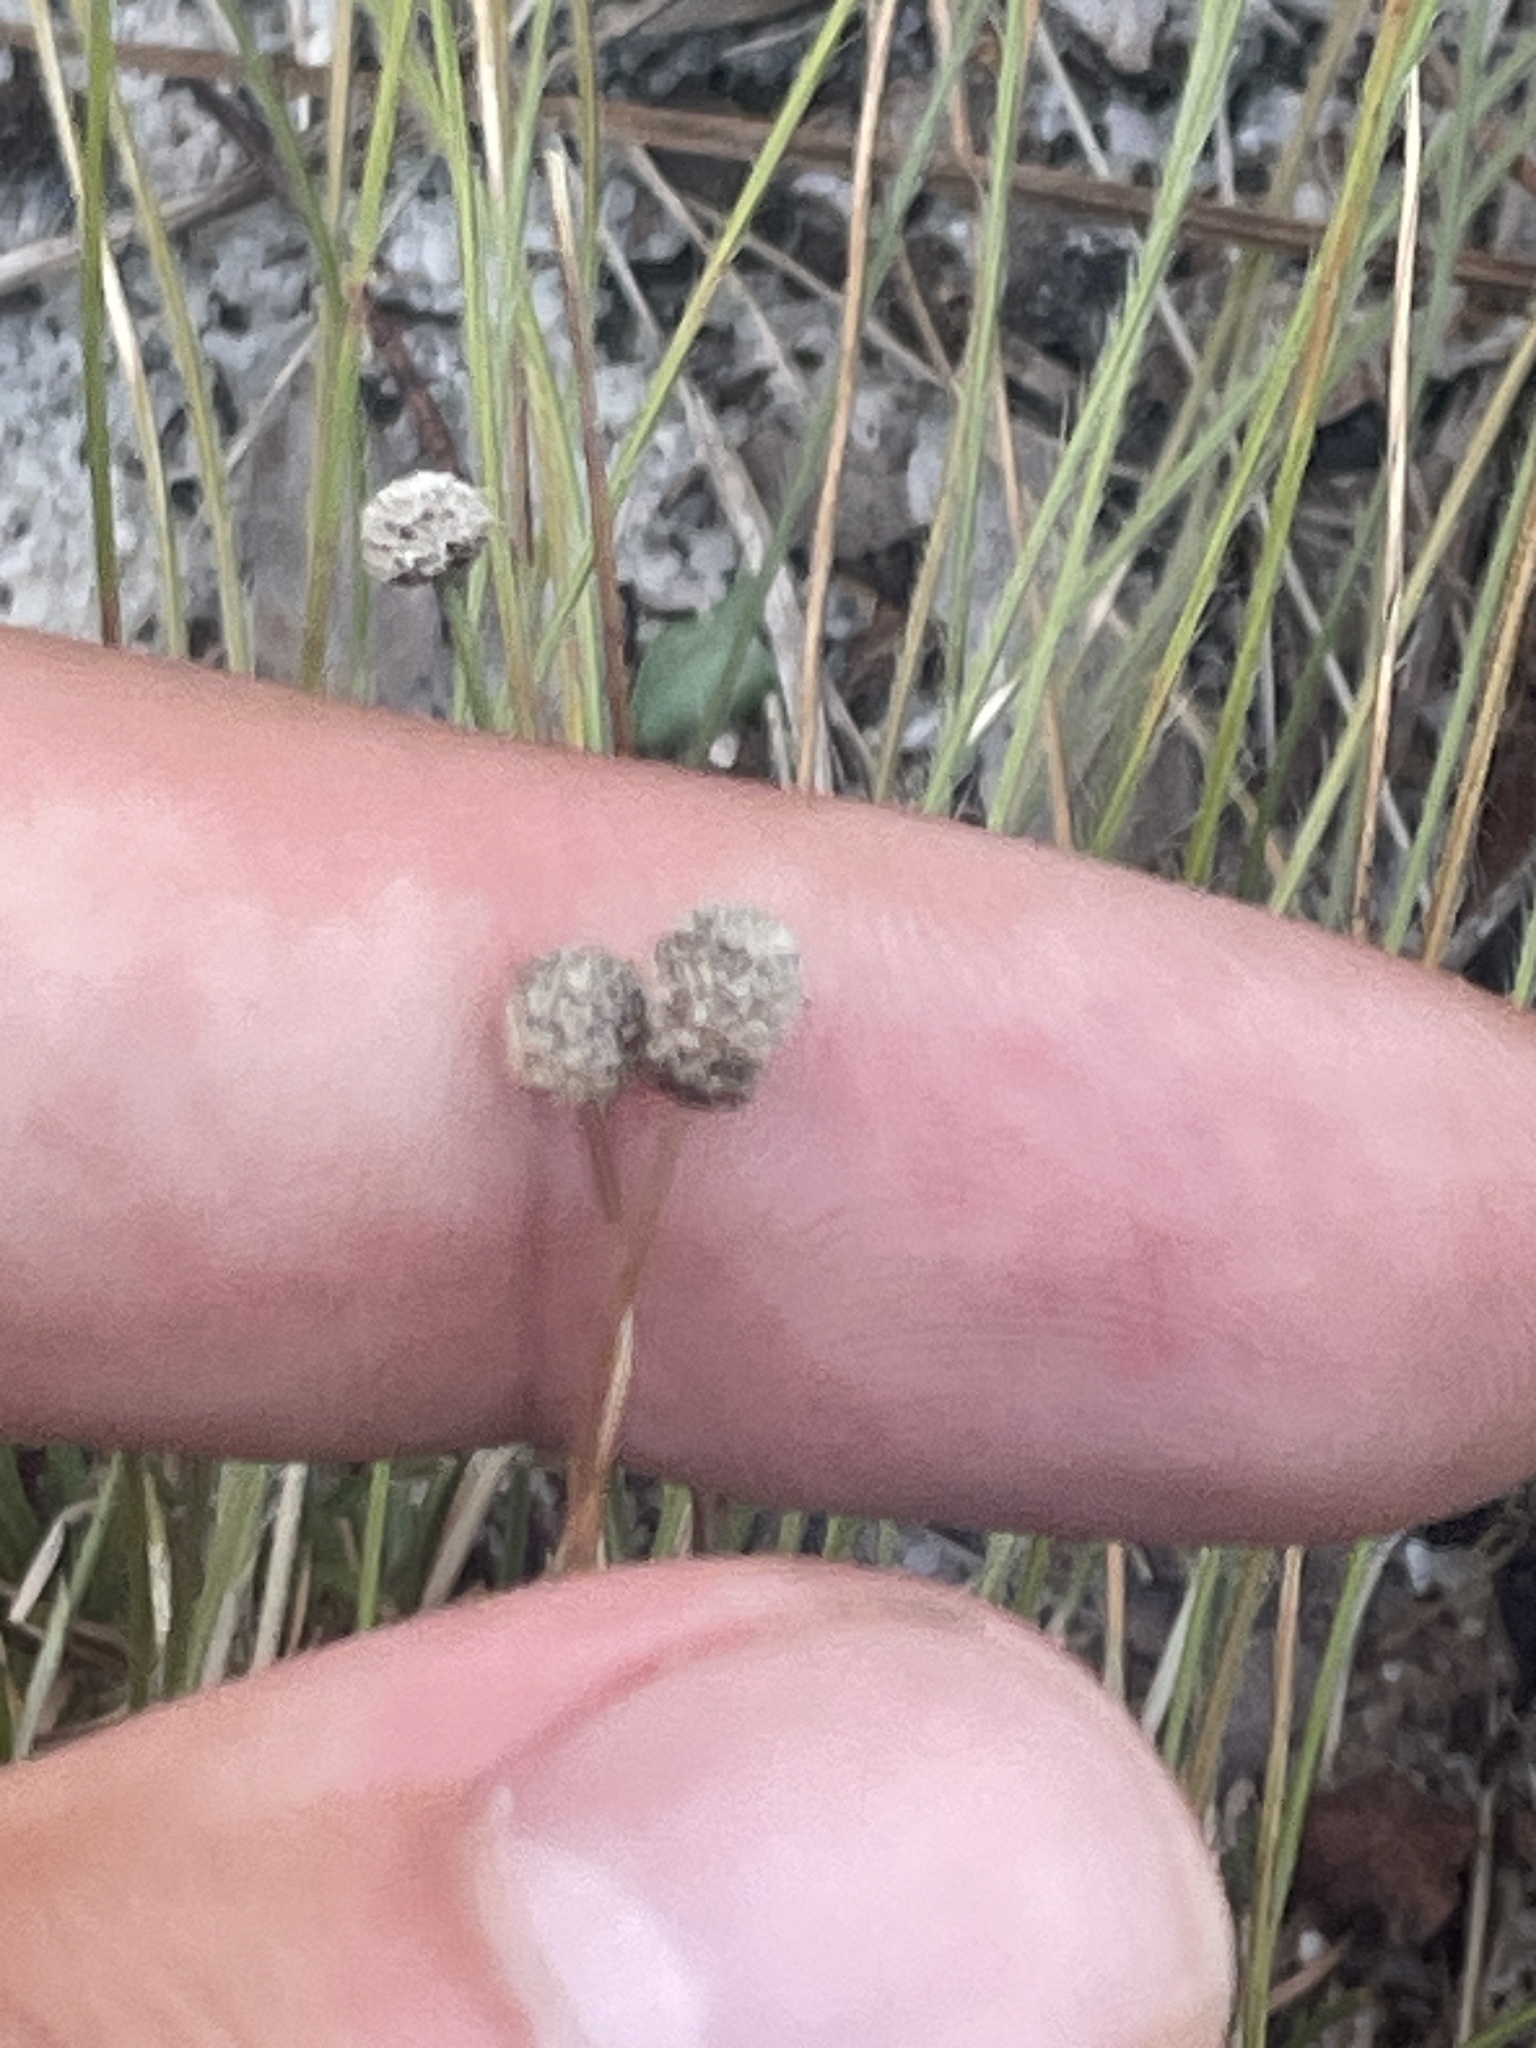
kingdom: Plantae
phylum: Tracheophyta
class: Liliopsida
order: Poales
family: Eriocaulaceae
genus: Paepalanthus
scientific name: Paepalanthus beyrichianus
